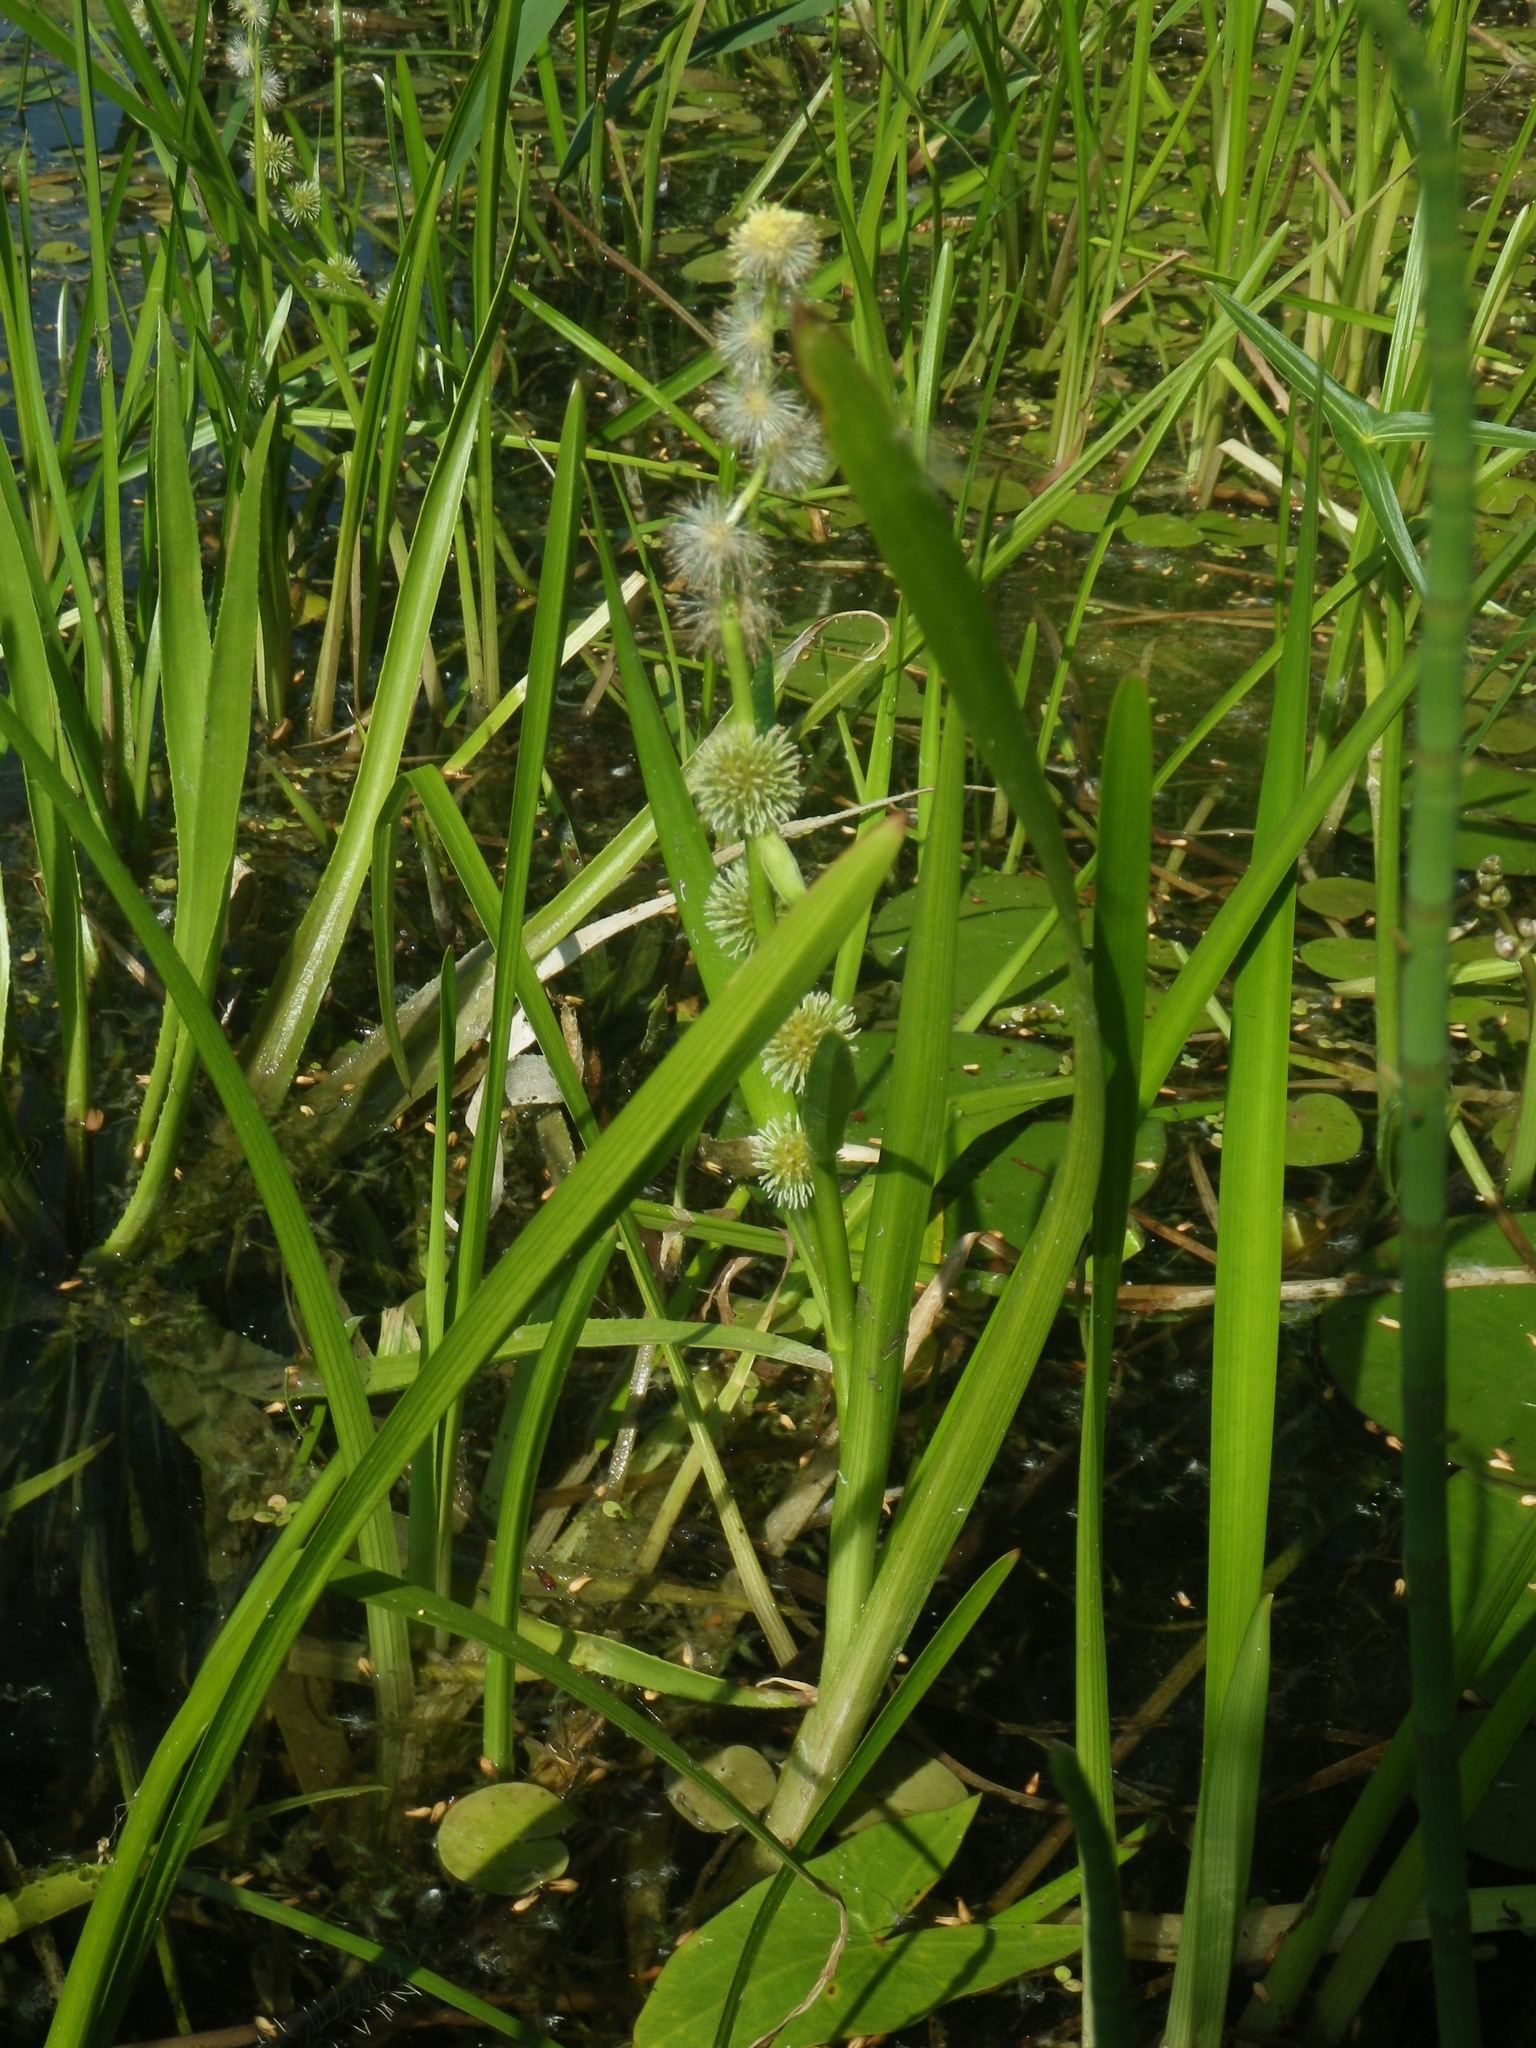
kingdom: Plantae
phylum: Tracheophyta
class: Liliopsida
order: Poales
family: Typhaceae
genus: Sparganium
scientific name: Sparganium emersum
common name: Unbranched bur-reed
